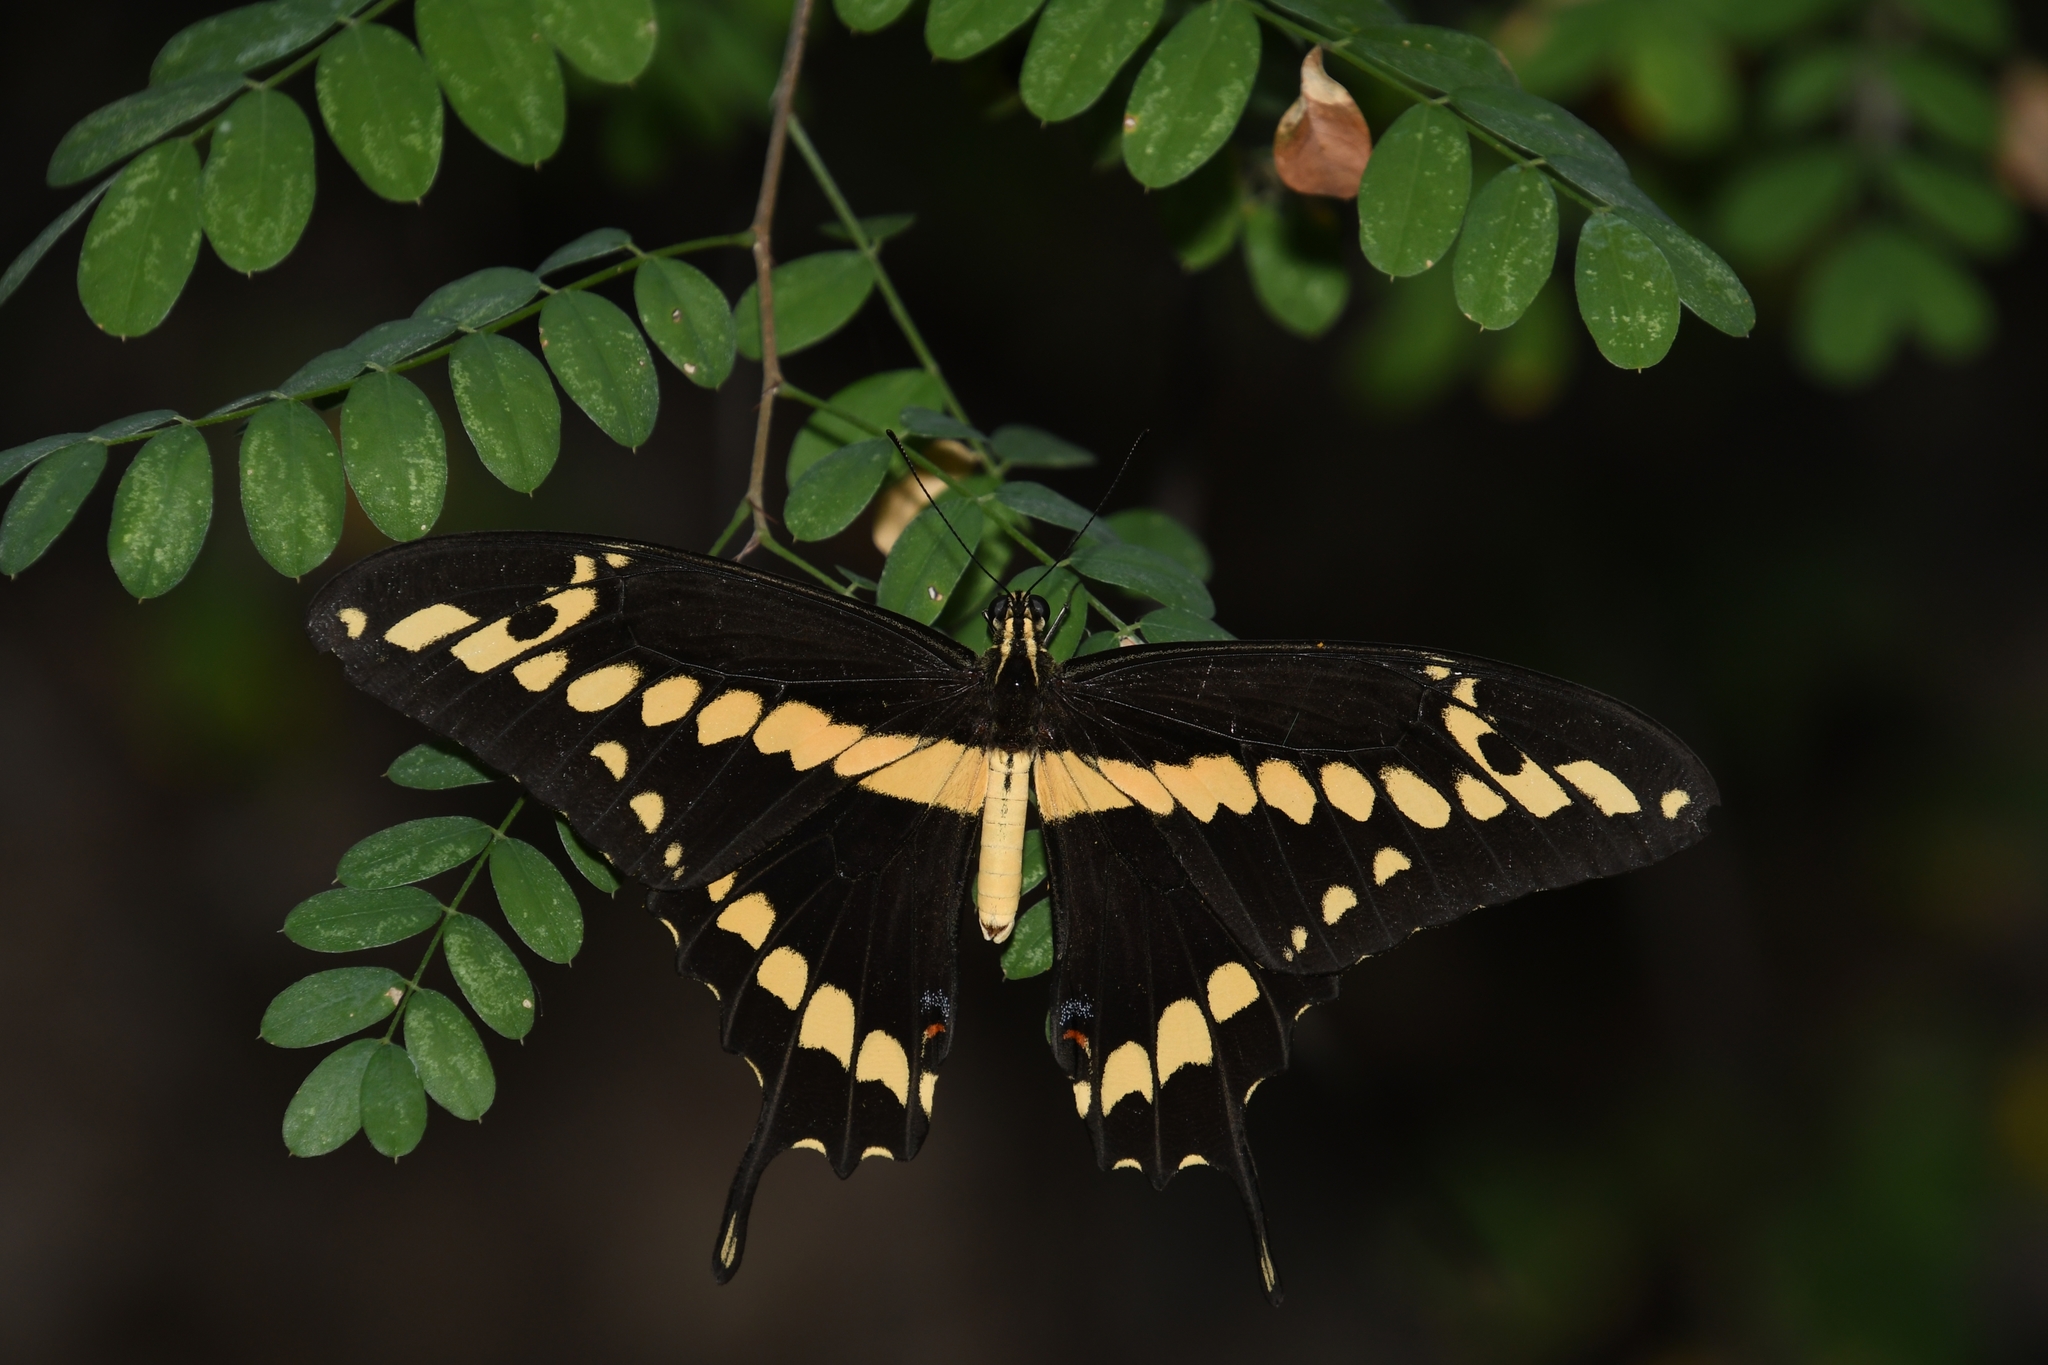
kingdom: Animalia
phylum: Arthropoda
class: Insecta
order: Lepidoptera
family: Papilionidae
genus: Papilio
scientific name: Papilio rumiko
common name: Western giant swallowtail
